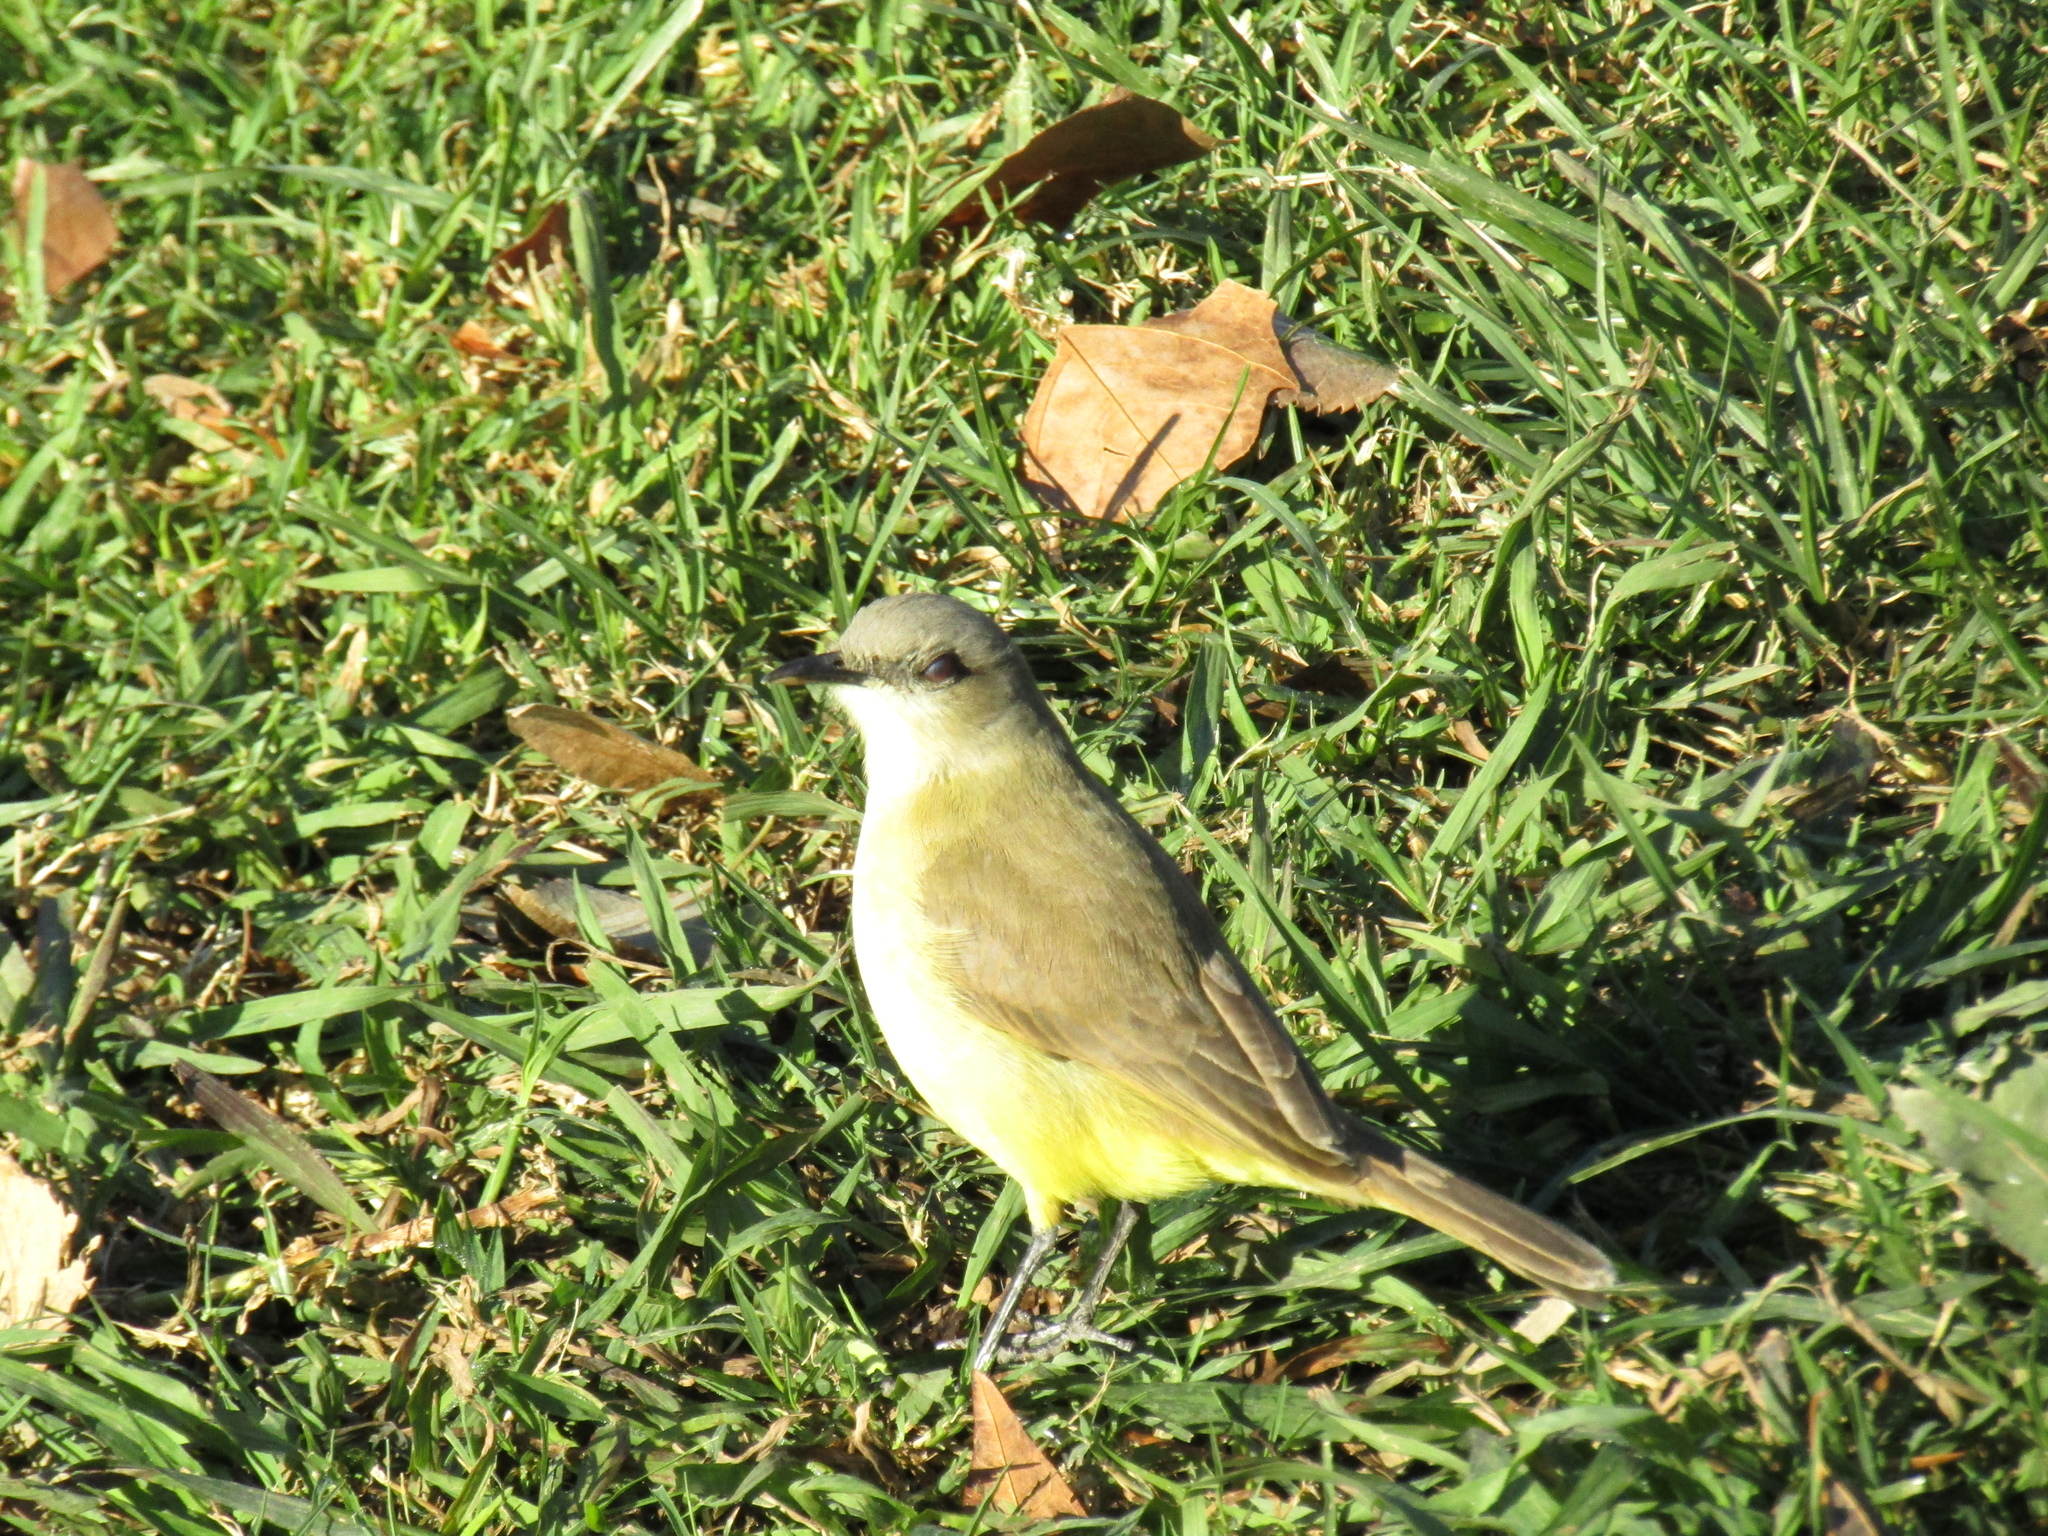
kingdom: Animalia
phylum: Chordata
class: Aves
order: Passeriformes
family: Tyrannidae
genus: Machetornis
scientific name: Machetornis rixosa
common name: Cattle tyrant
